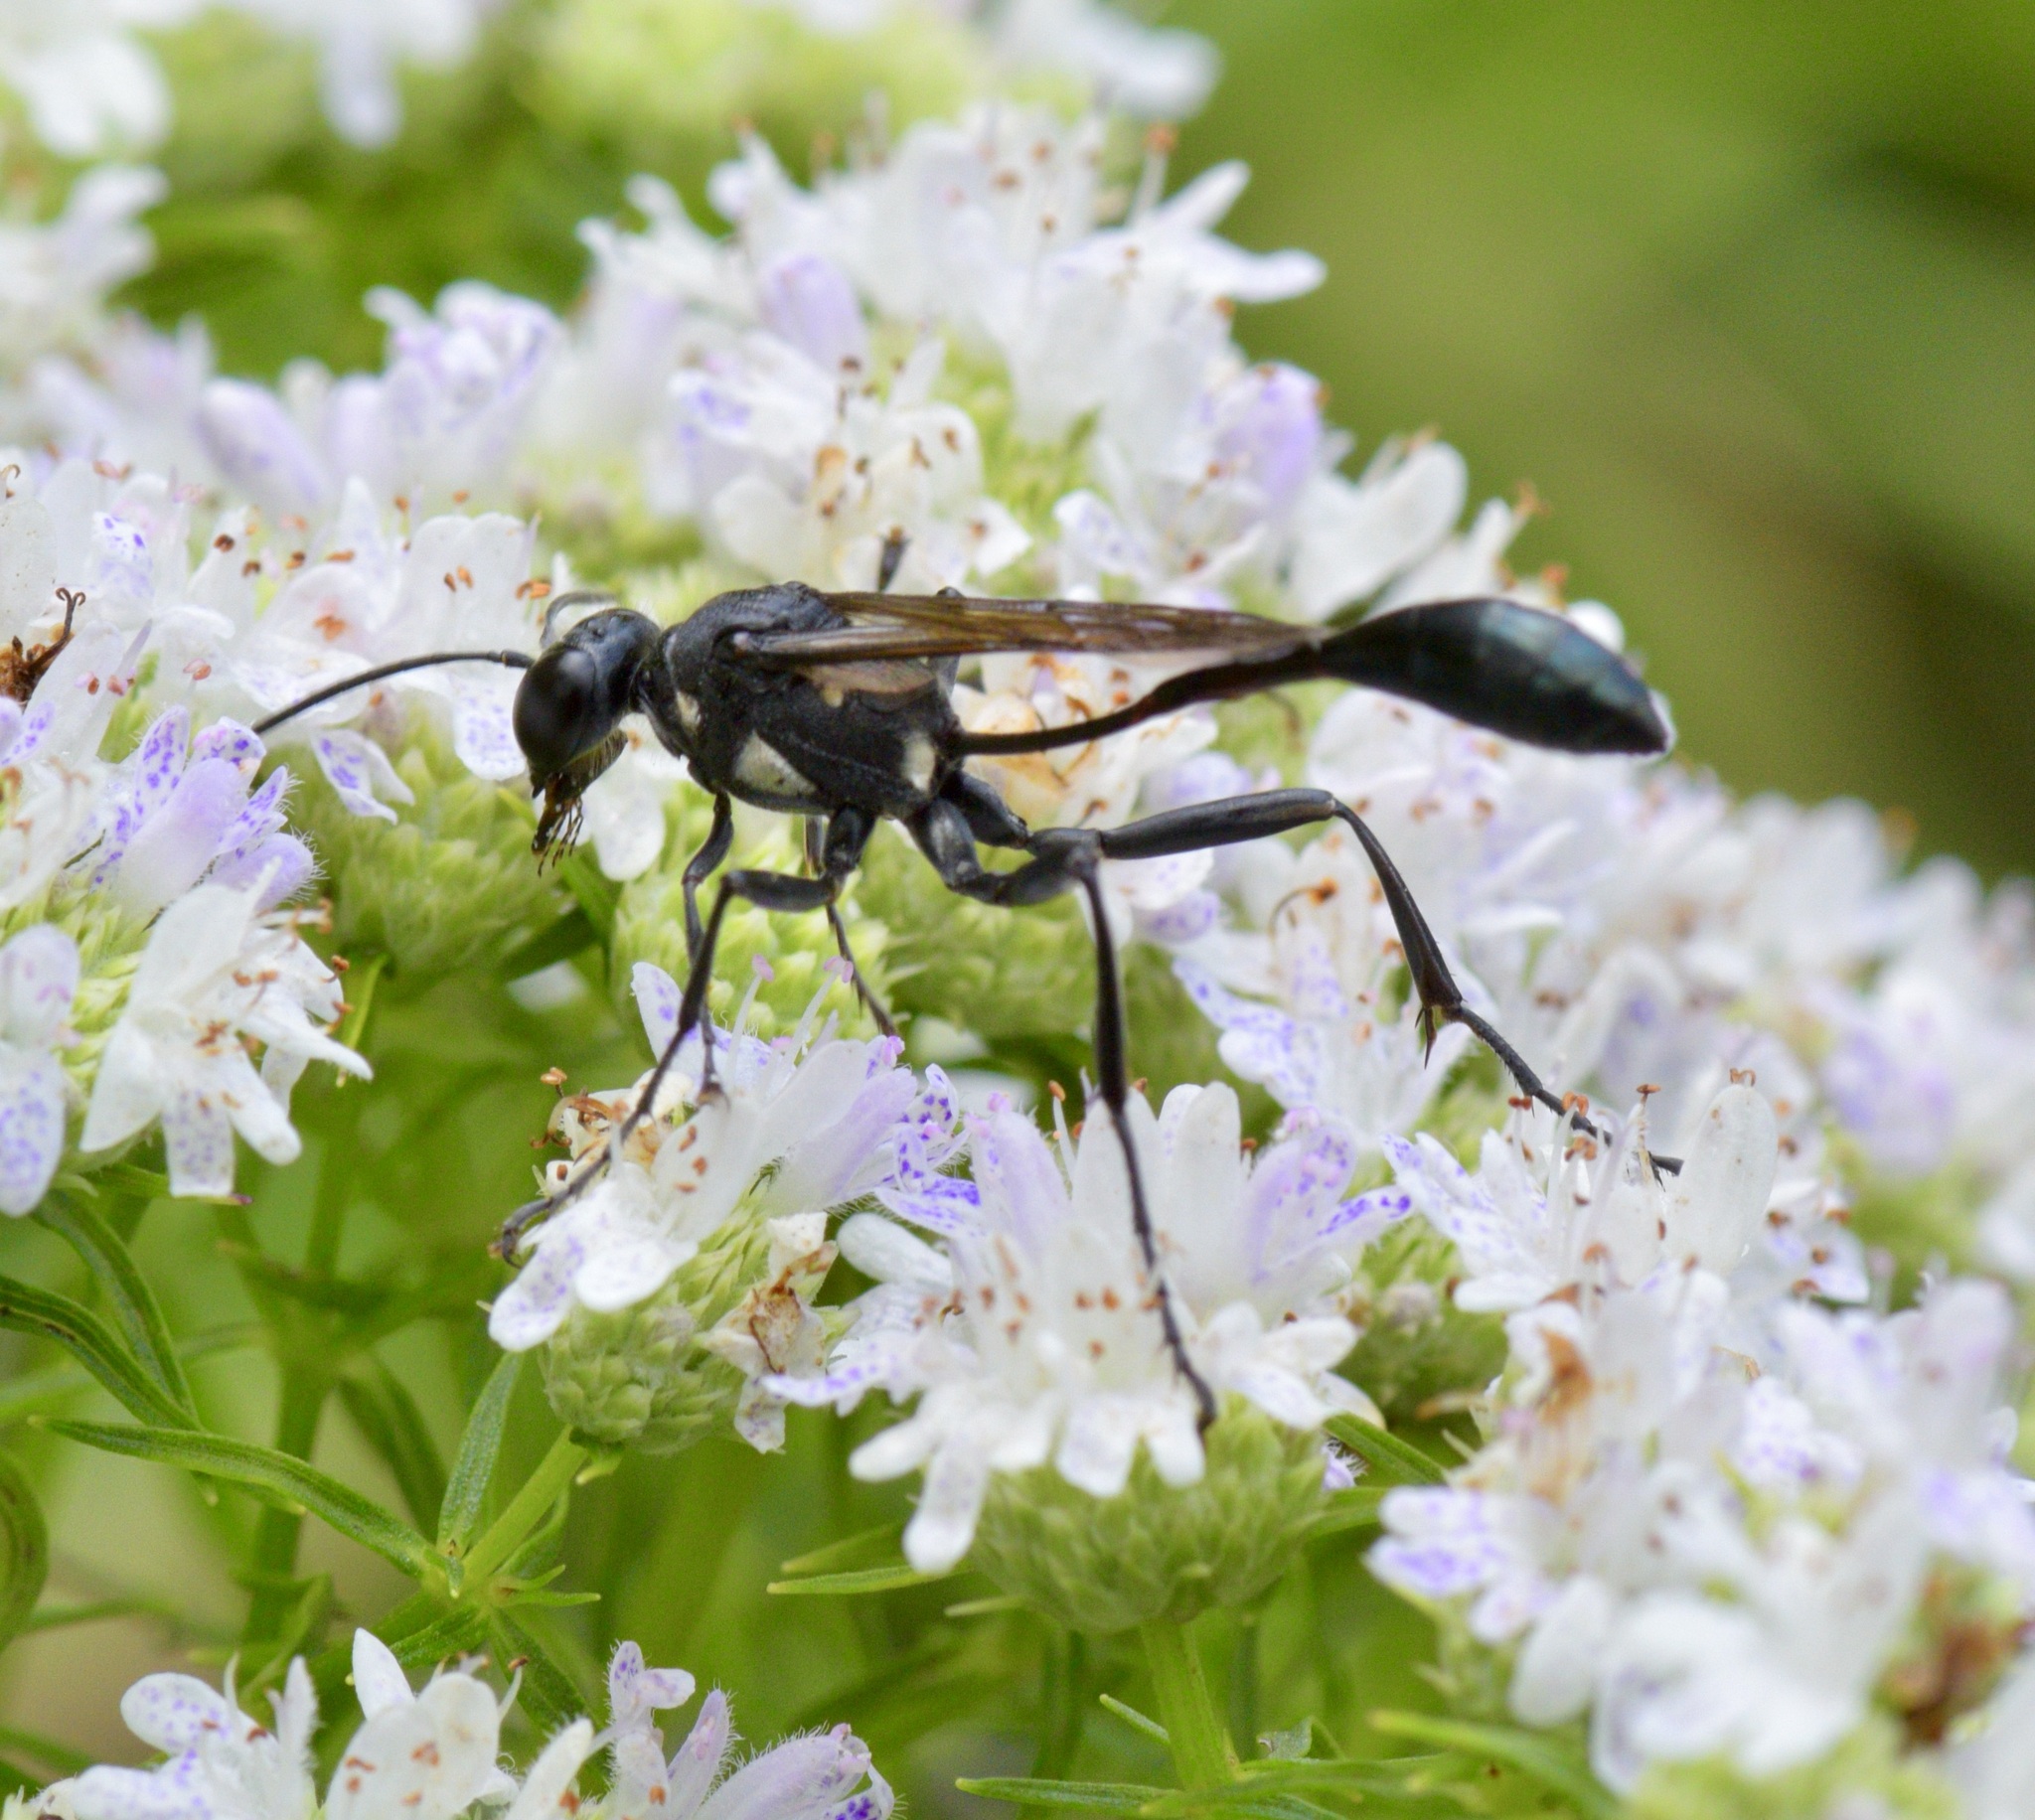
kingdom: Animalia
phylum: Arthropoda
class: Insecta
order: Hymenoptera
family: Sphecidae
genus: Eremnophila
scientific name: Eremnophila aureonotata
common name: Gold-marked thread-waisted wasp
